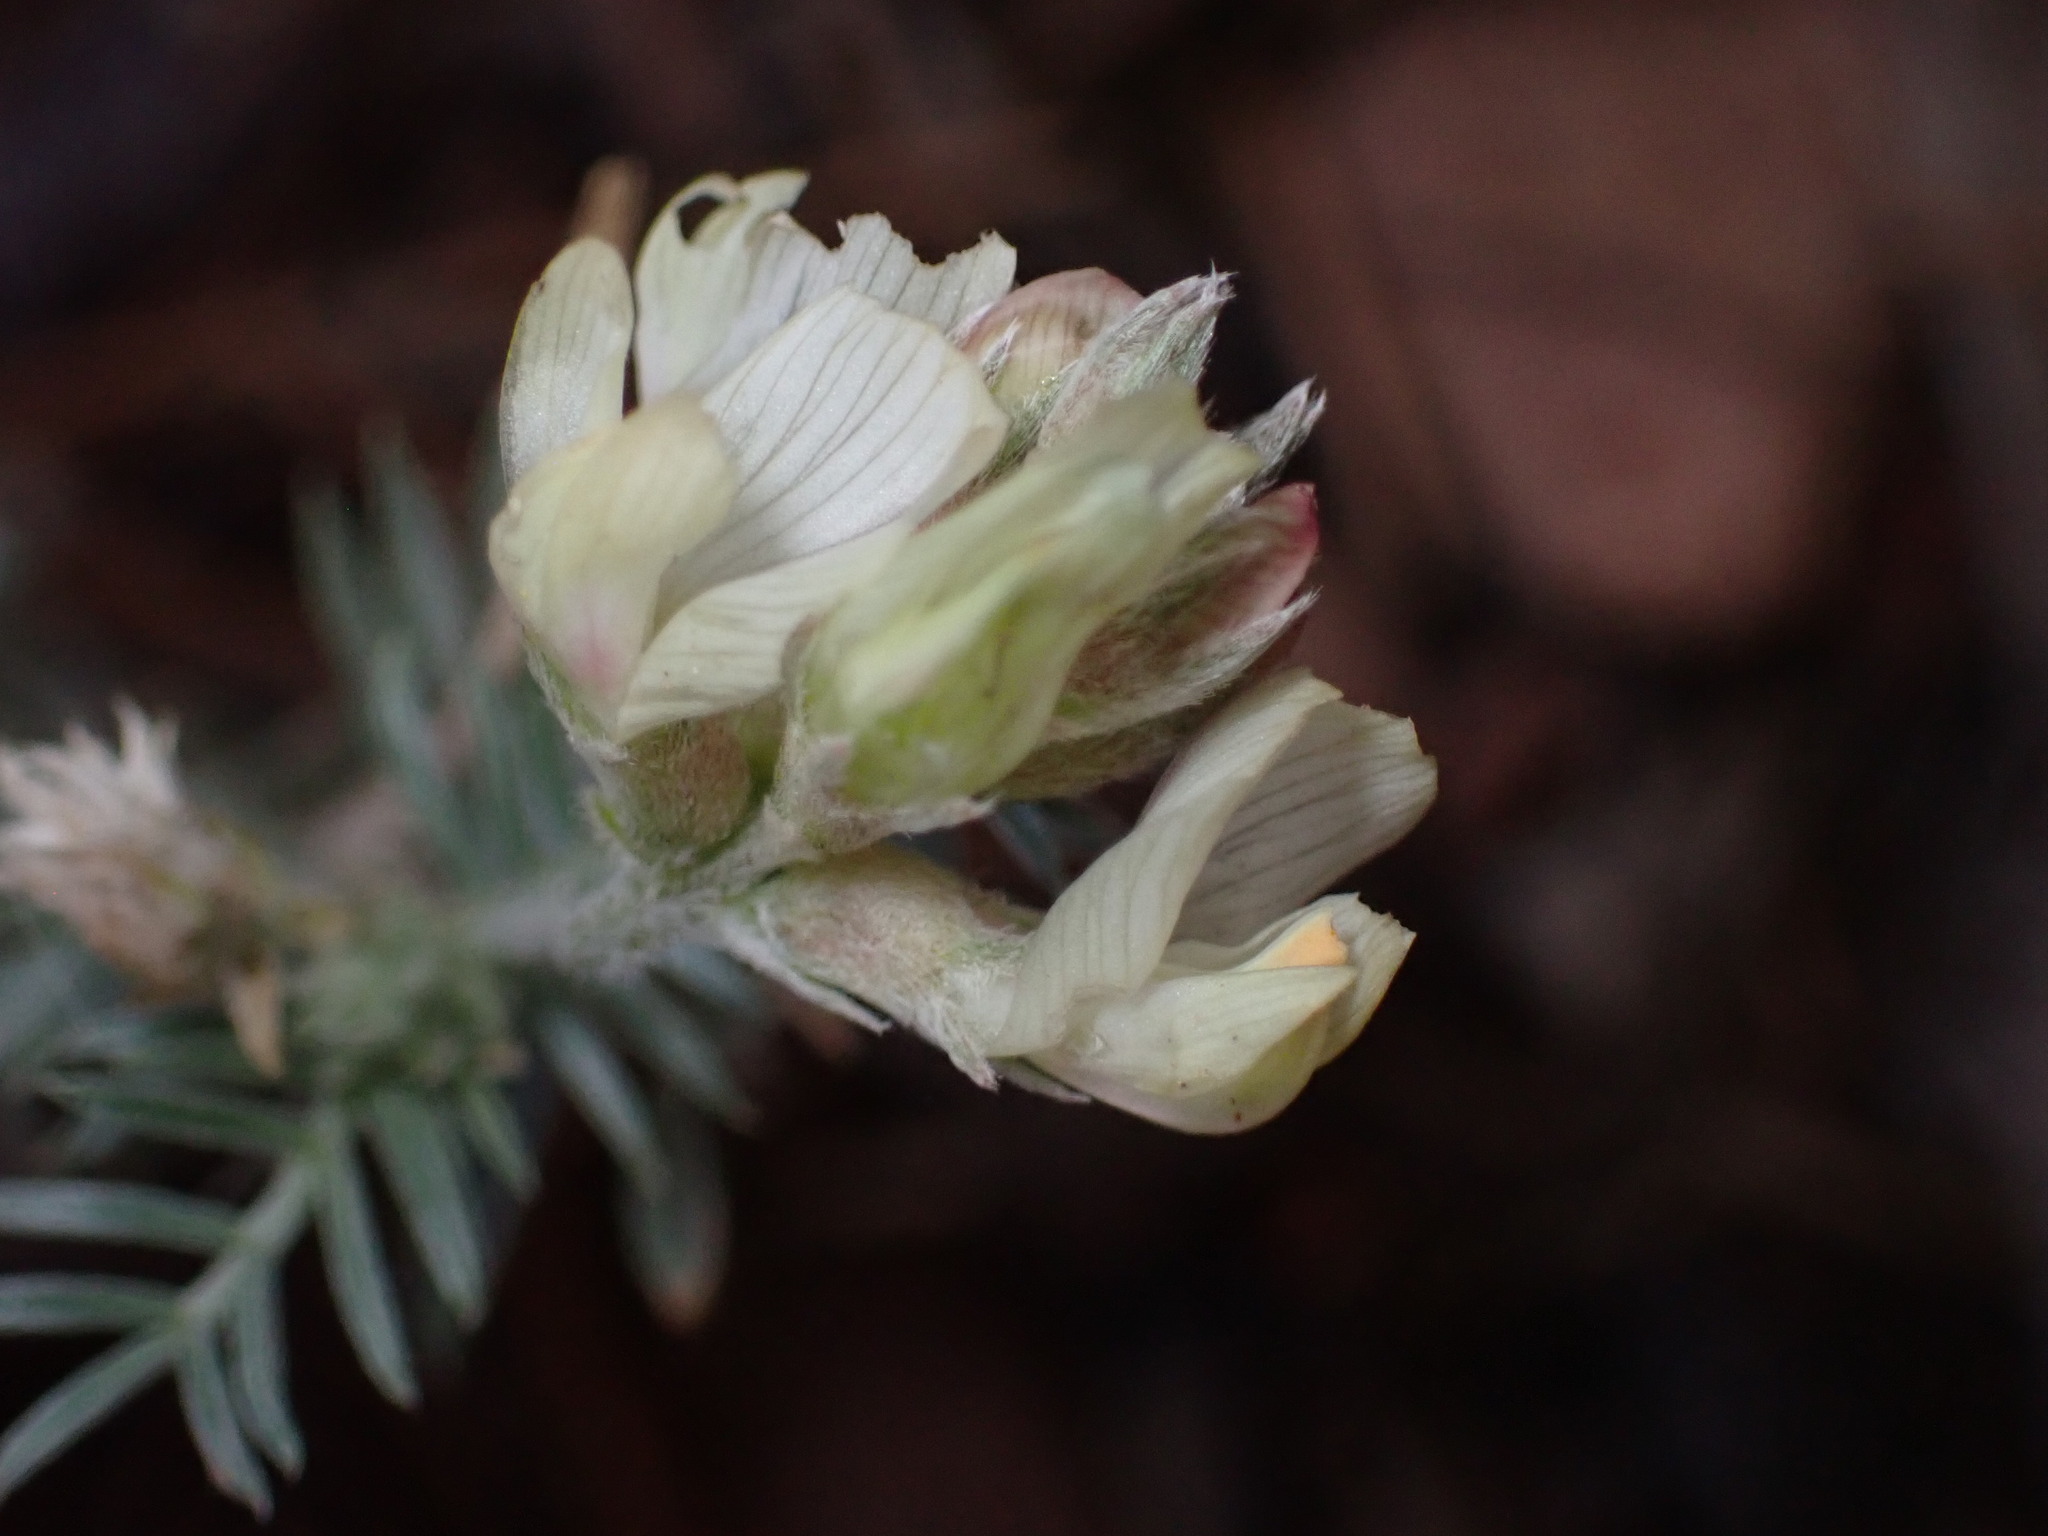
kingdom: Plantae
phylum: Tracheophyta
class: Magnoliopsida
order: Fabales
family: Fabaceae
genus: Astragalus
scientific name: Astragalus humistratus
